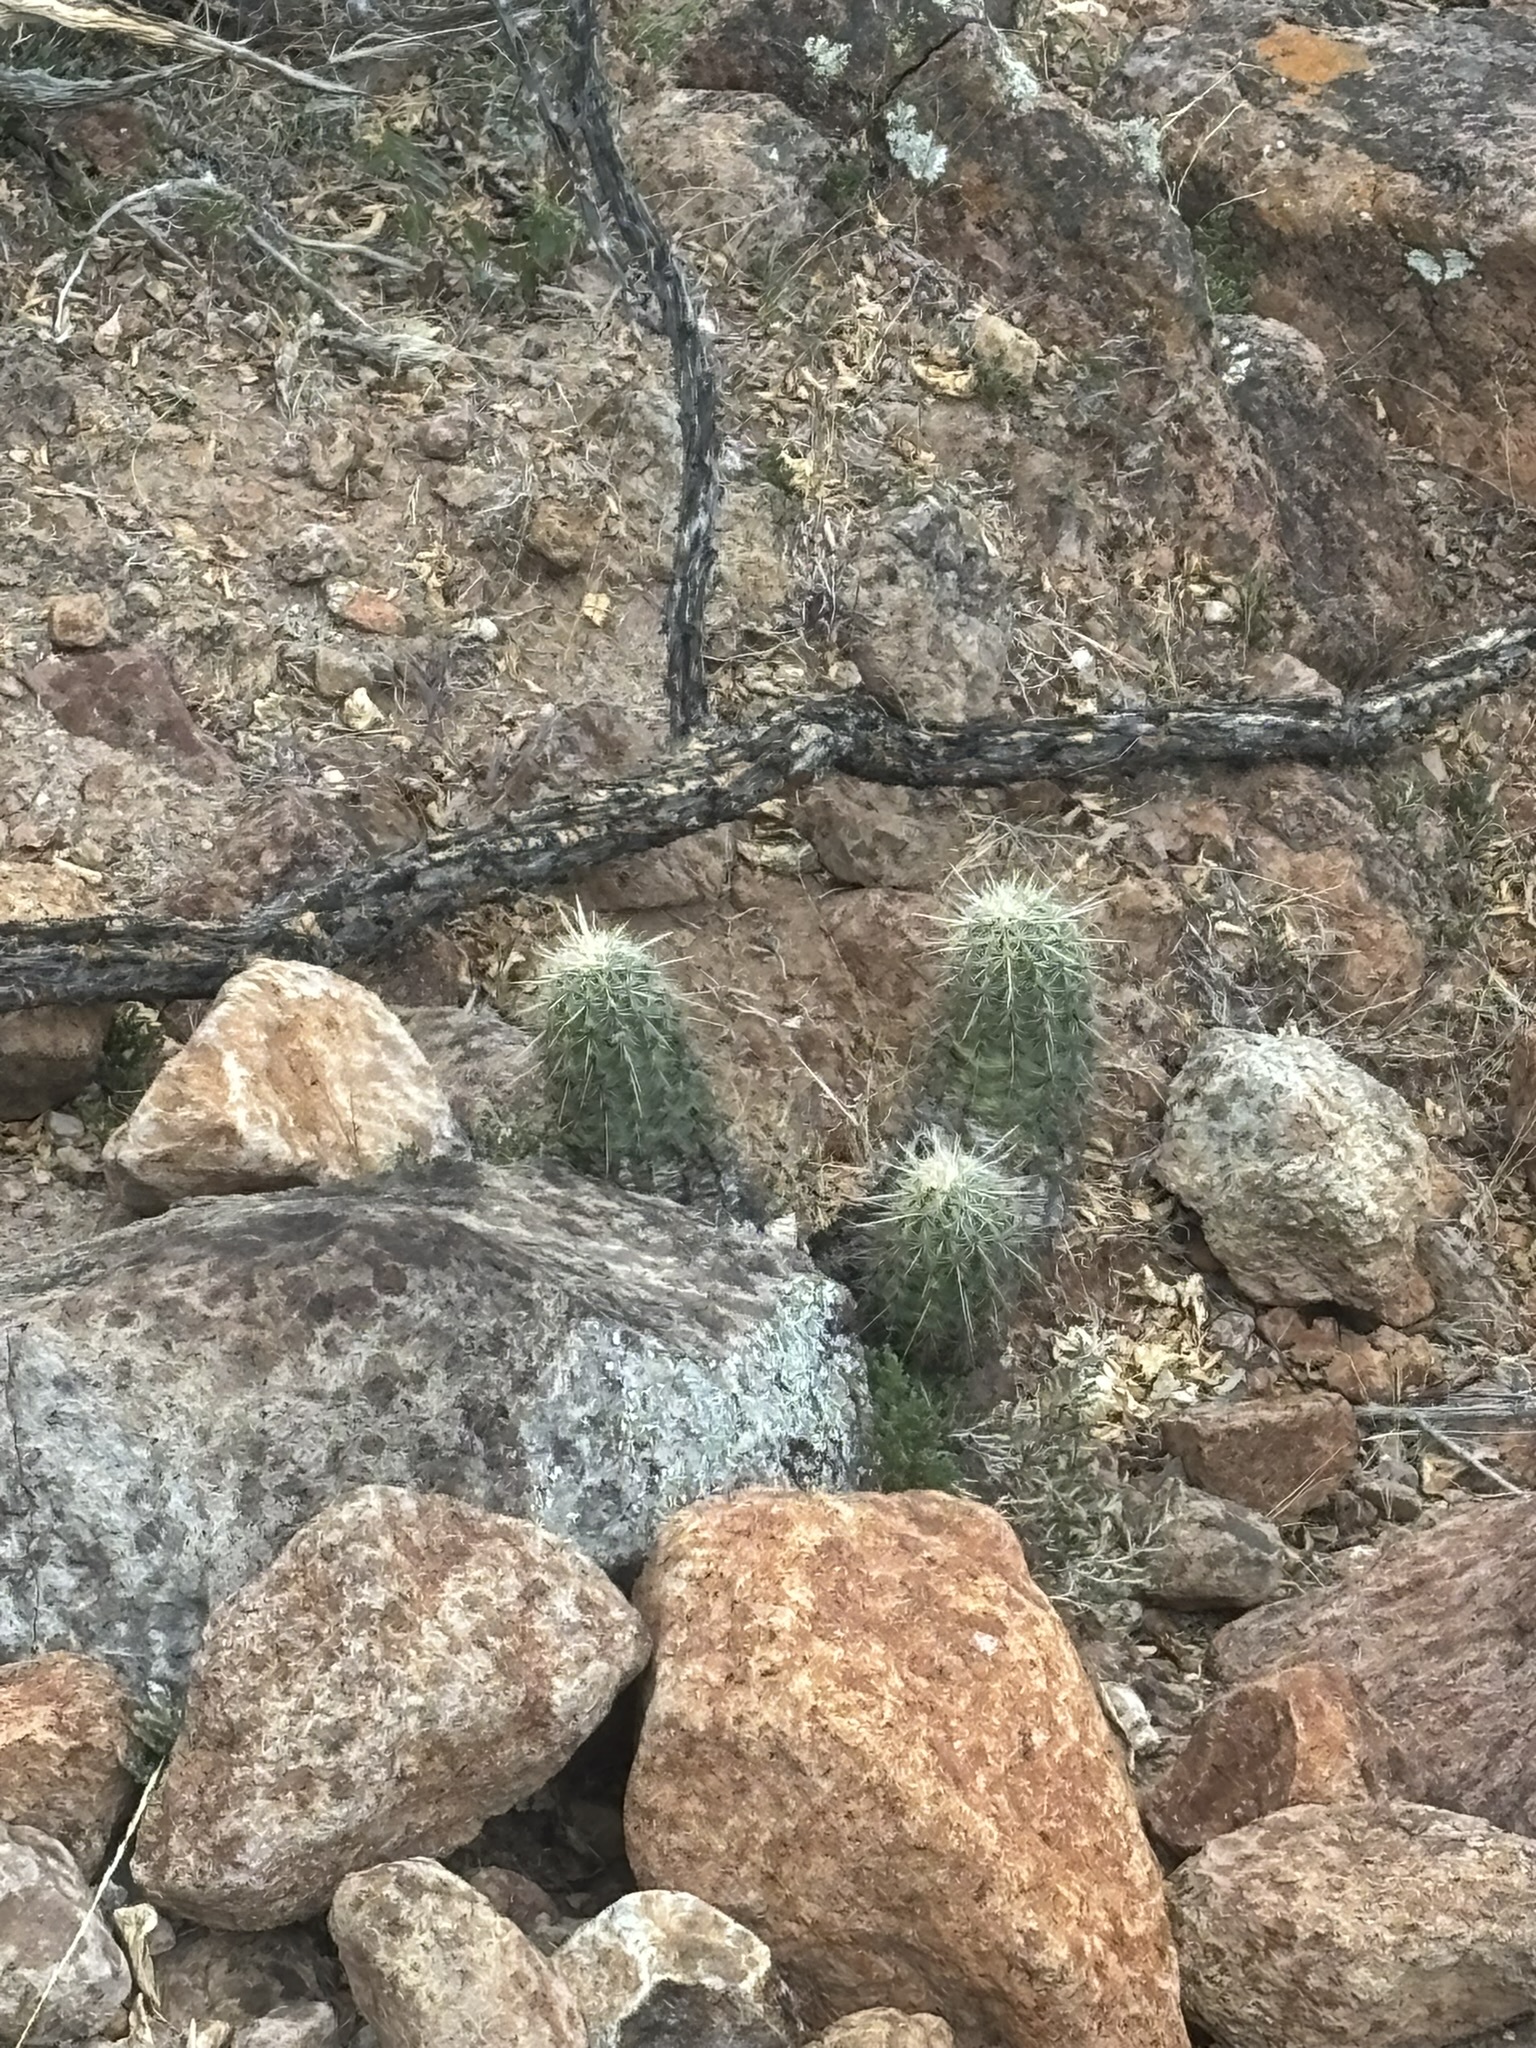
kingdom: Plantae
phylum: Tracheophyta
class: Magnoliopsida
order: Caryophyllales
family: Cactaceae
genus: Echinocereus
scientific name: Echinocereus
